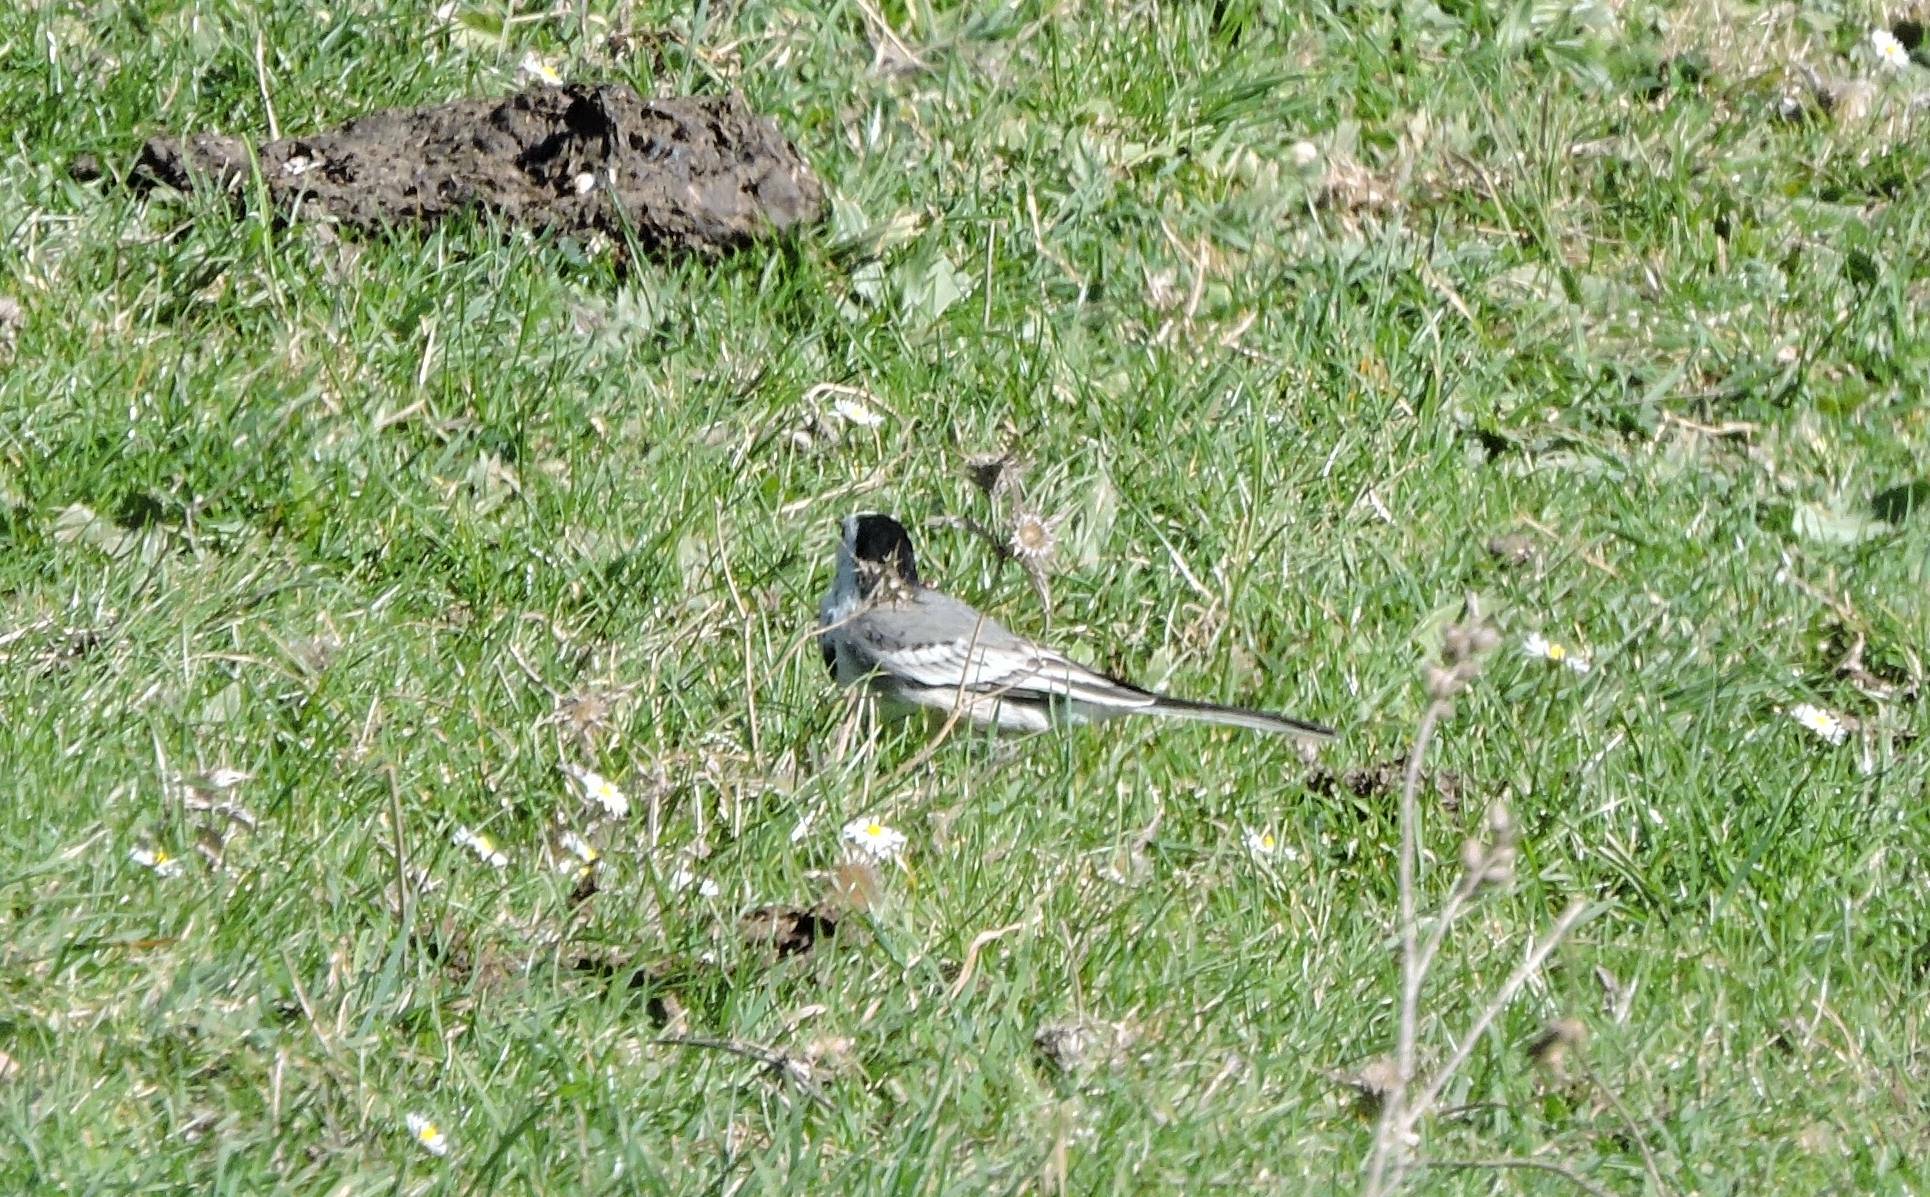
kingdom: Animalia
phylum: Chordata
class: Aves
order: Passeriformes
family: Motacillidae
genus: Motacilla
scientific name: Motacilla alba
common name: White wagtail
